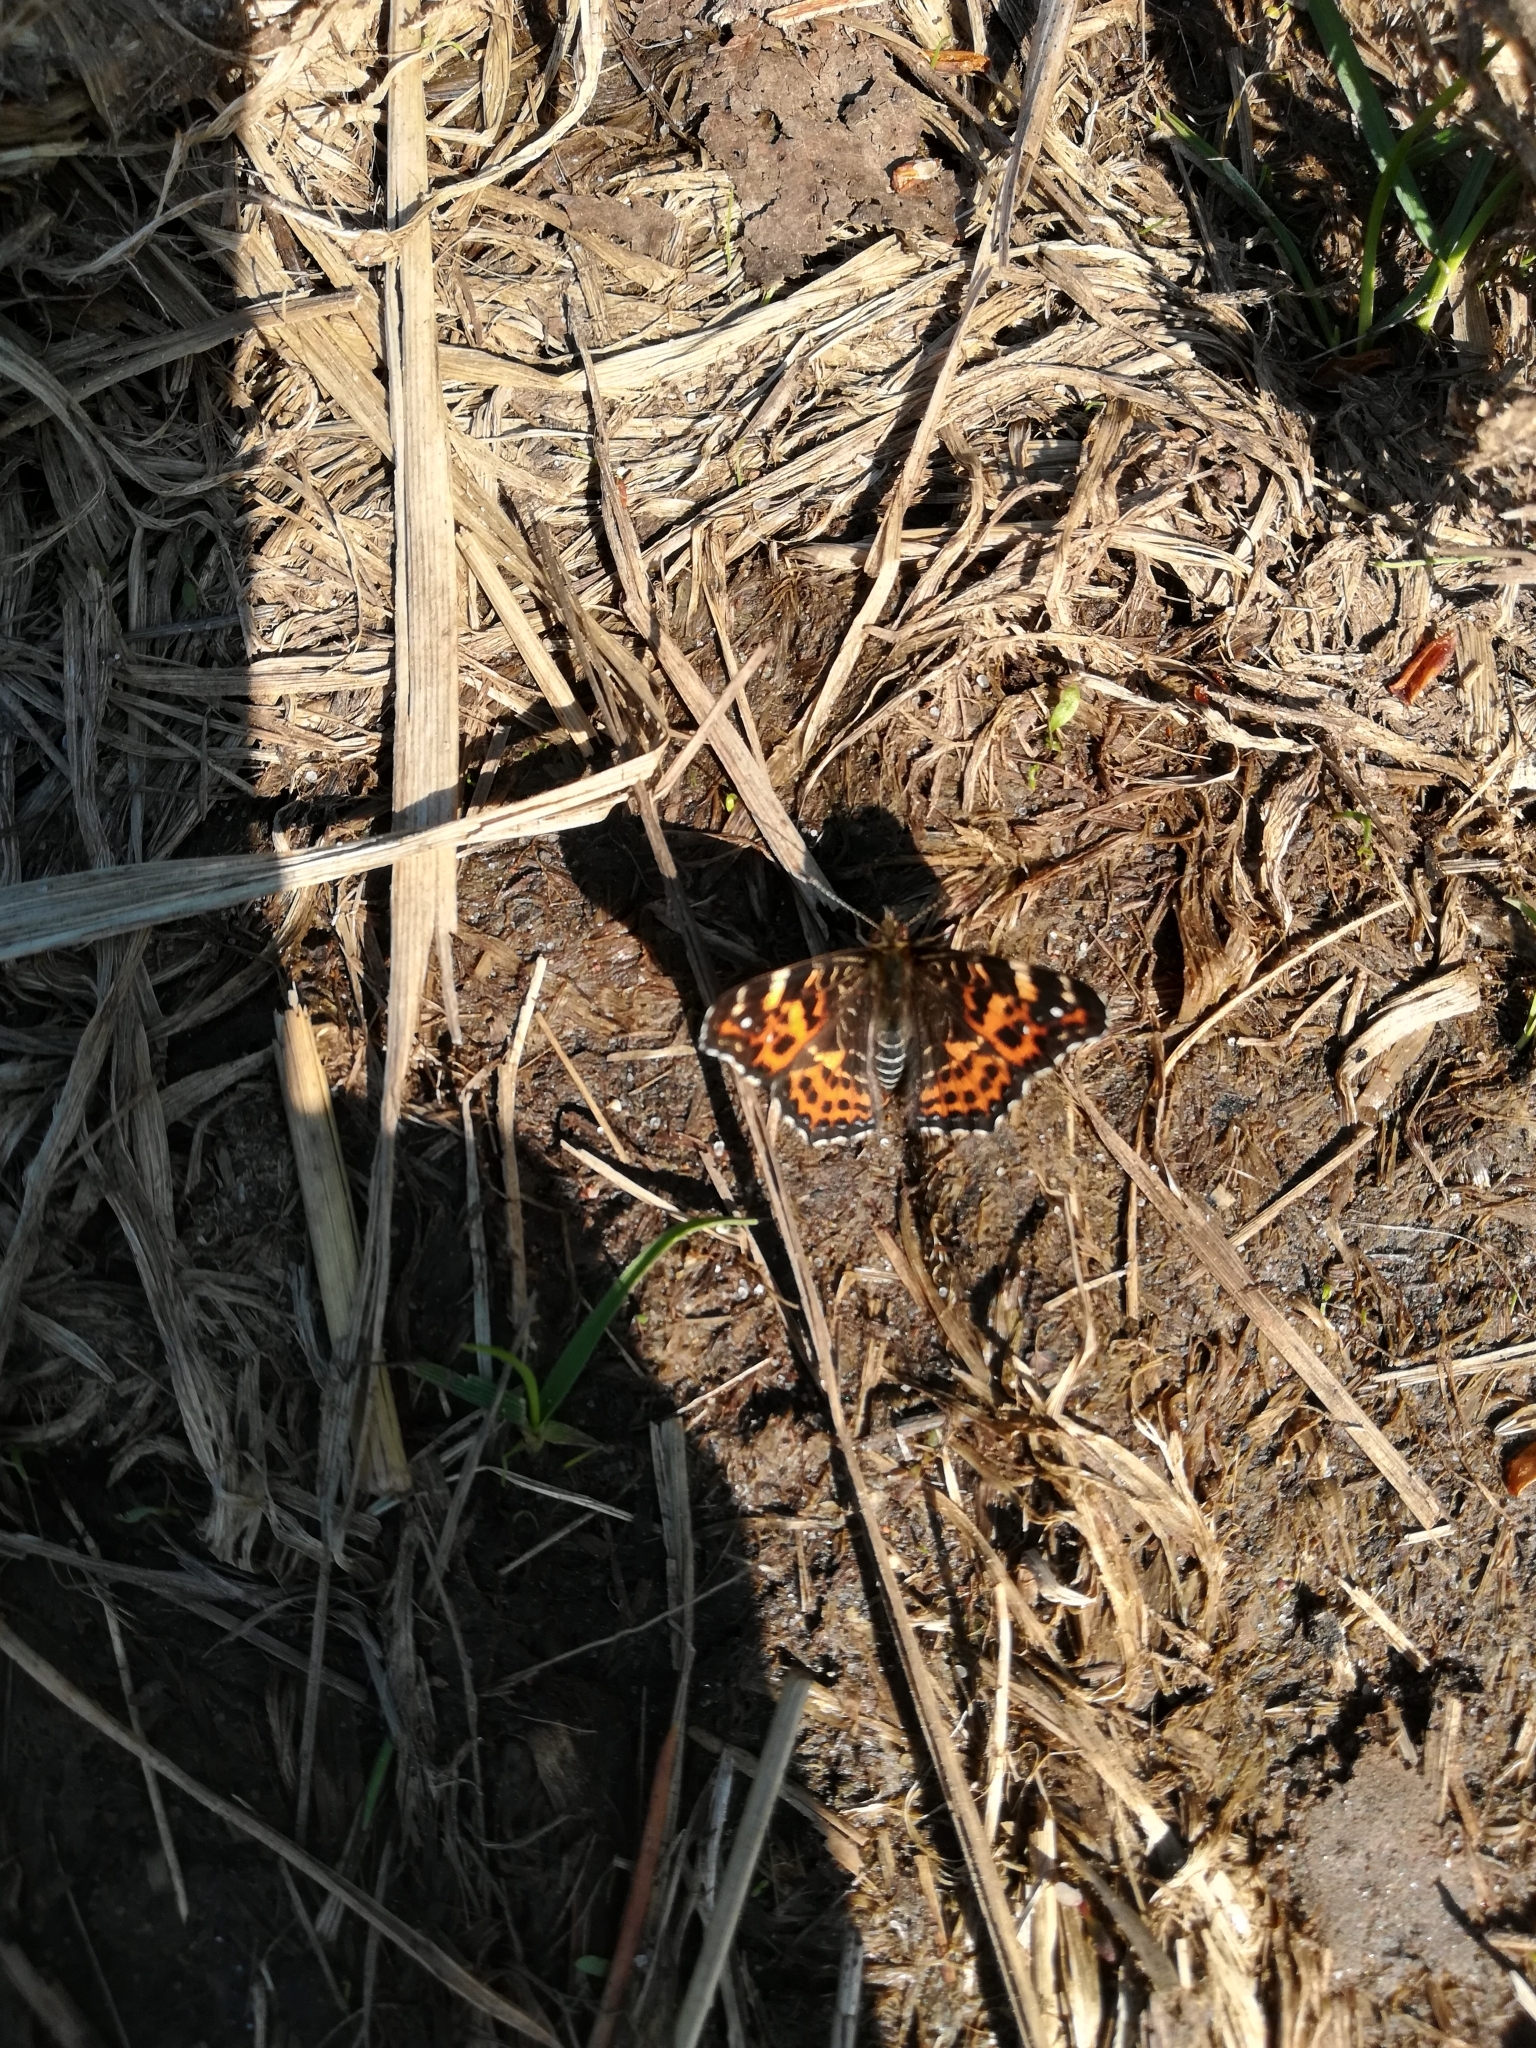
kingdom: Animalia
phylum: Arthropoda
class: Insecta
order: Lepidoptera
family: Nymphalidae
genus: Araschnia
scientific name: Araschnia levana
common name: Map butterfly
